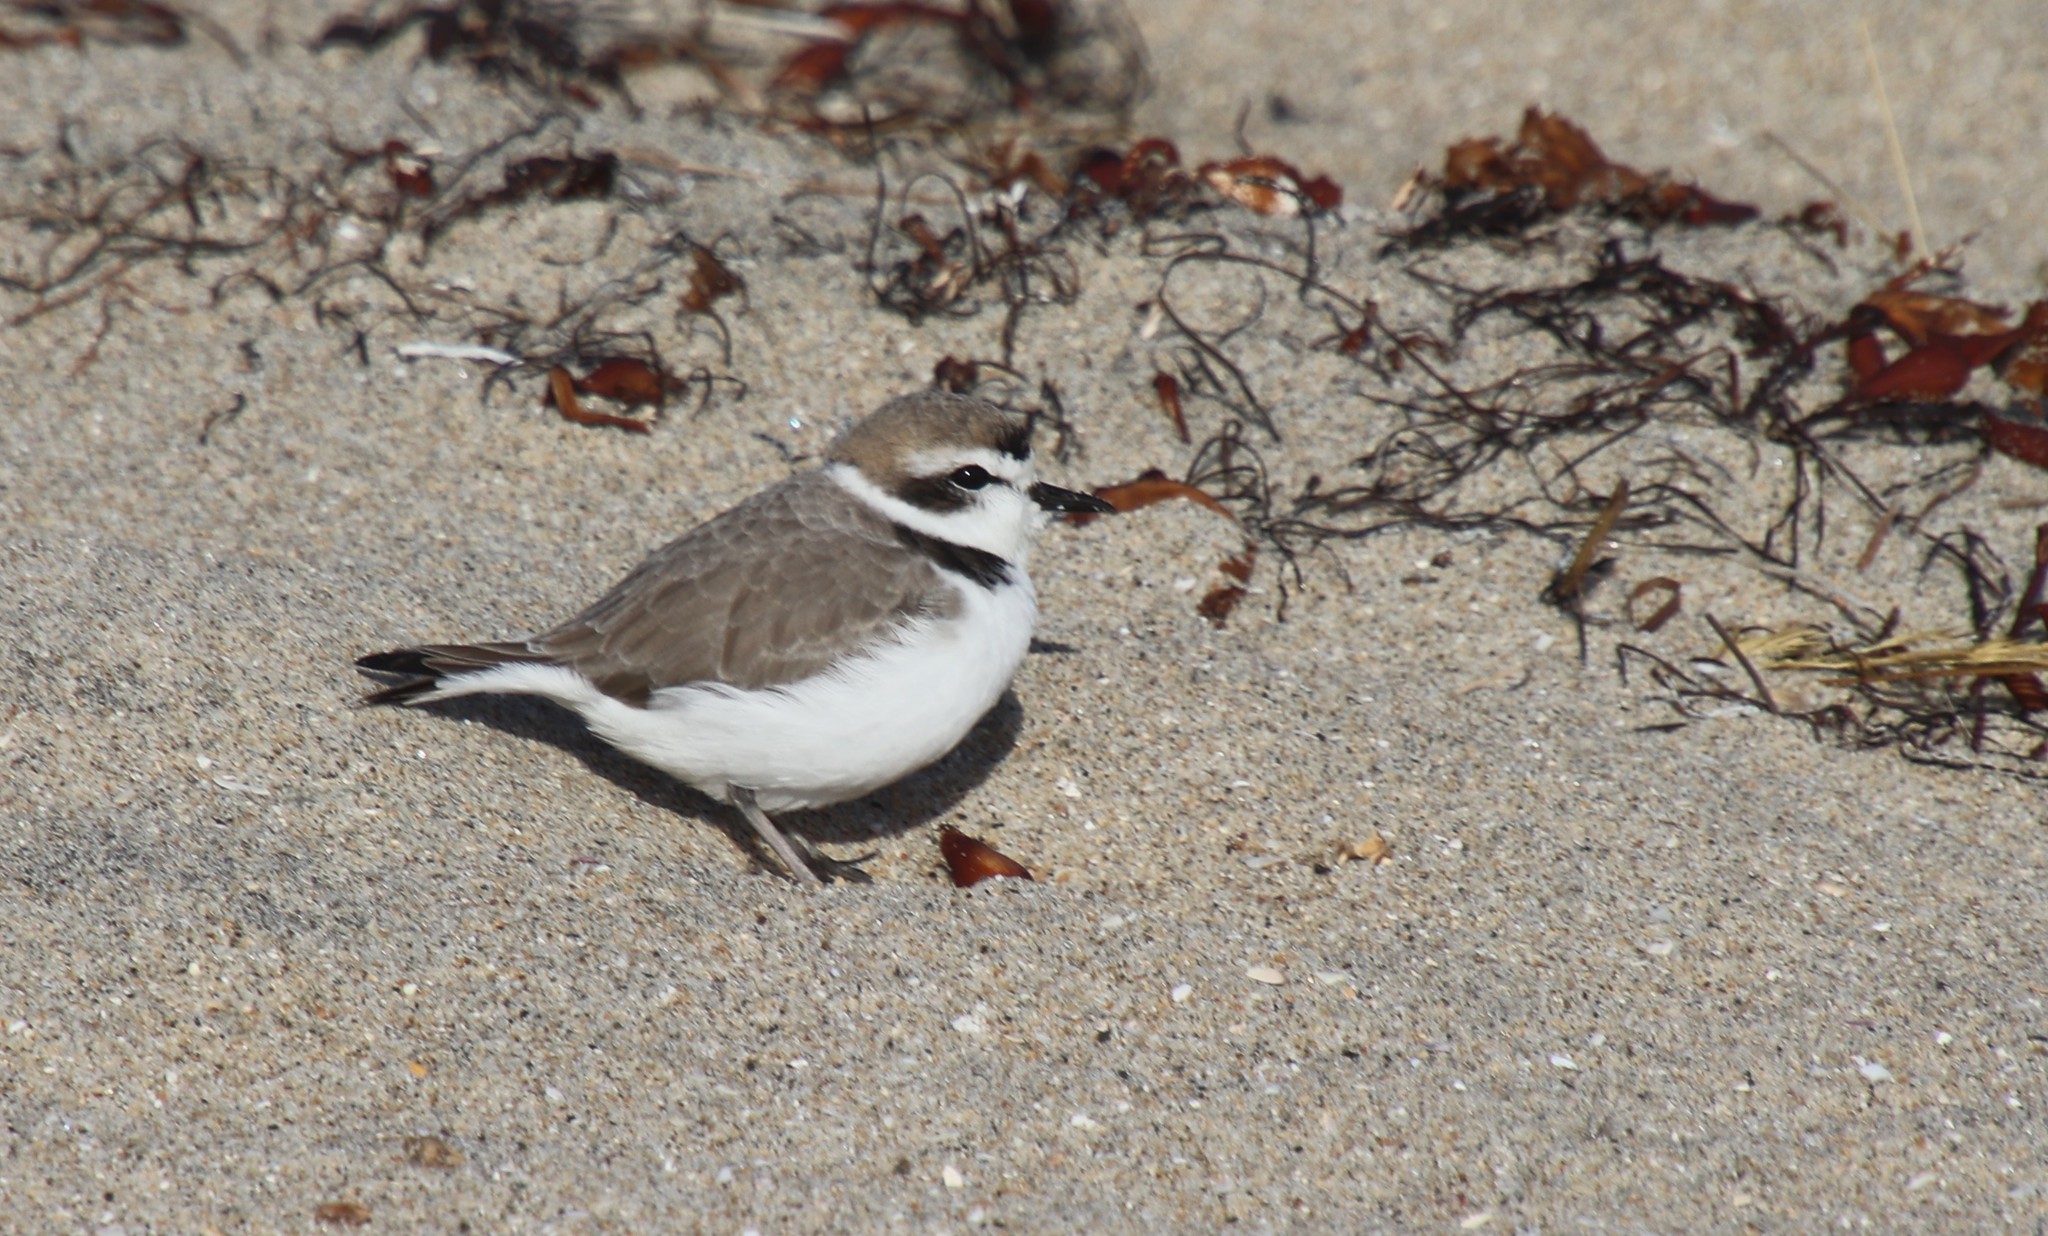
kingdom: Animalia
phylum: Chordata
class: Aves
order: Charadriiformes
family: Charadriidae
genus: Anarhynchus
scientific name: Anarhynchus
